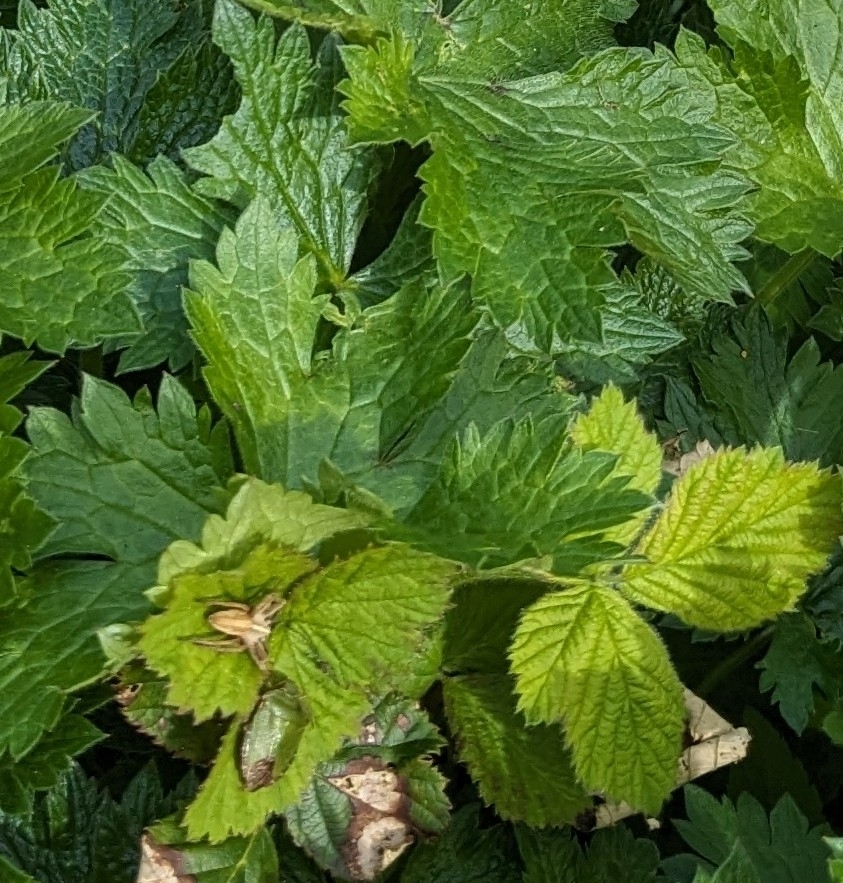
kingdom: Animalia
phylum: Arthropoda
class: Arachnida
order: Araneae
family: Pisauridae
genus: Pisaura
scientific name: Pisaura mirabilis
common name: Tent spider
